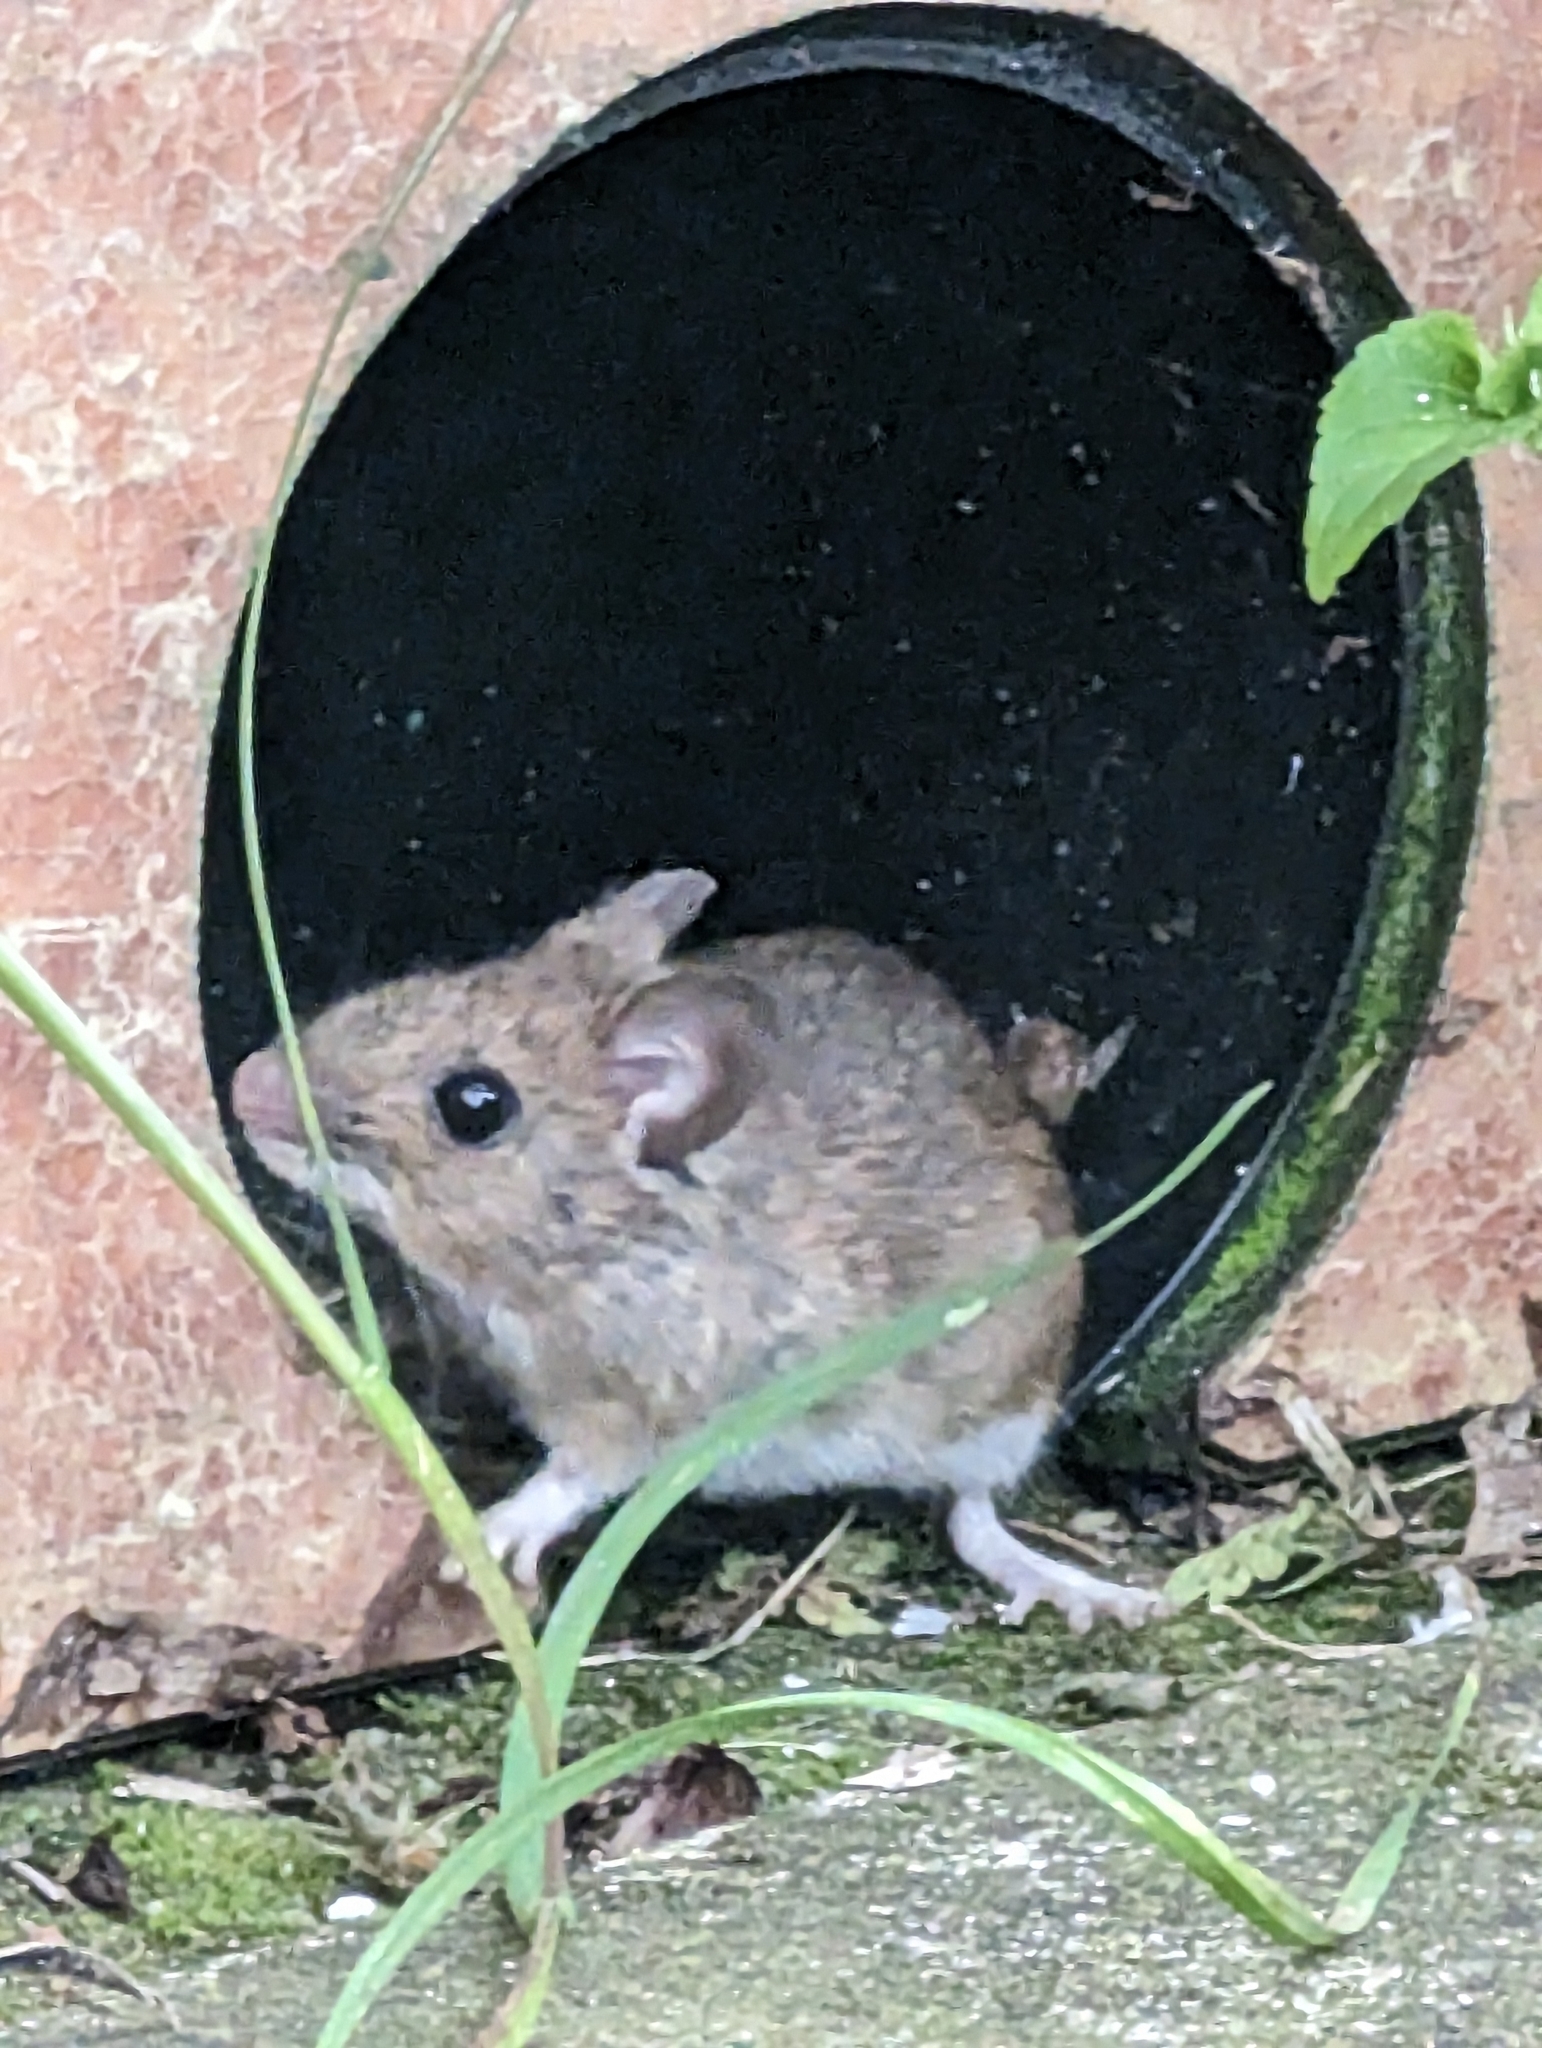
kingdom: Animalia
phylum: Chordata
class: Mammalia
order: Rodentia
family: Muridae
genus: Apodemus
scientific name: Apodemus sylvaticus
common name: Wood mouse
